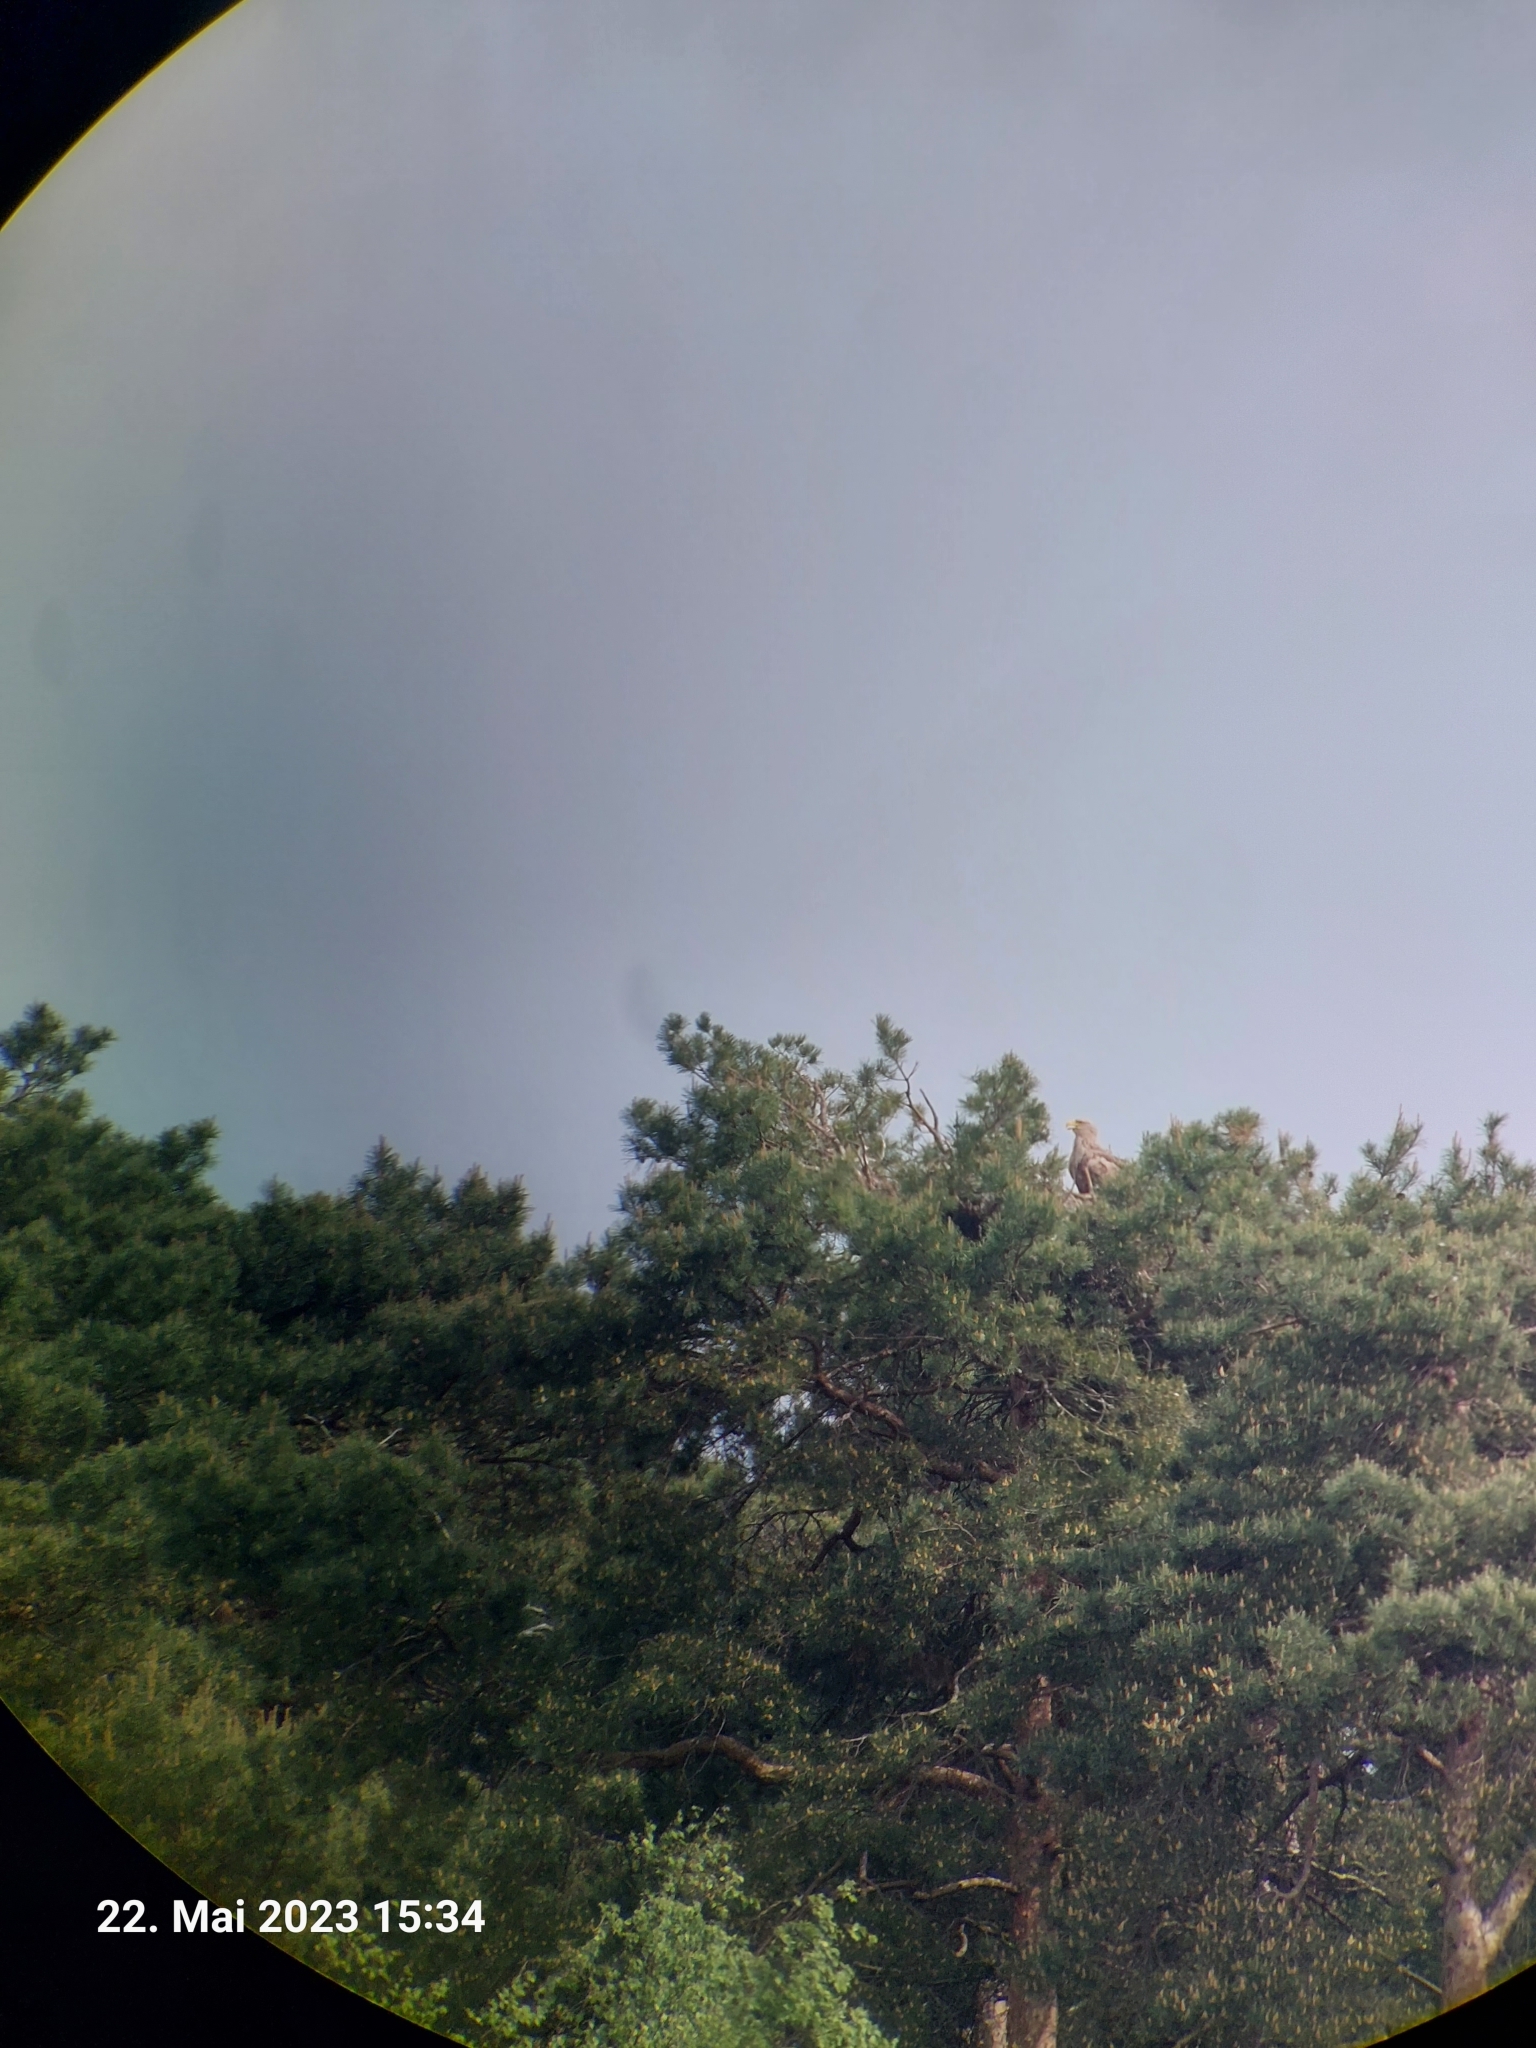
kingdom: Animalia
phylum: Chordata
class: Aves
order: Accipitriformes
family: Accipitridae
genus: Haliaeetus
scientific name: Haliaeetus albicilla
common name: White-tailed eagle
